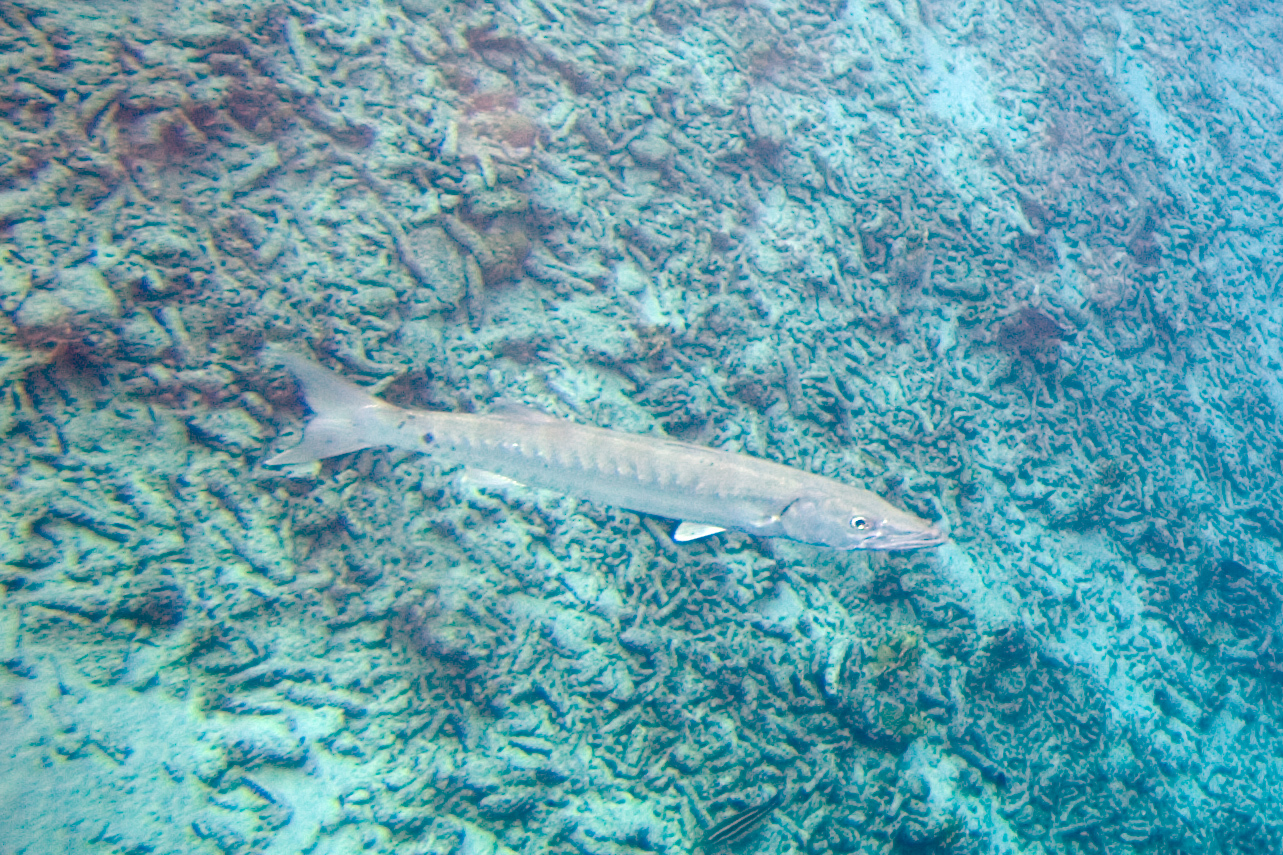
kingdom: Animalia
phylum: Chordata
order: Perciformes
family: Sphyraenidae
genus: Sphyraena
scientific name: Sphyraena barracuda
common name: Great barracuda
